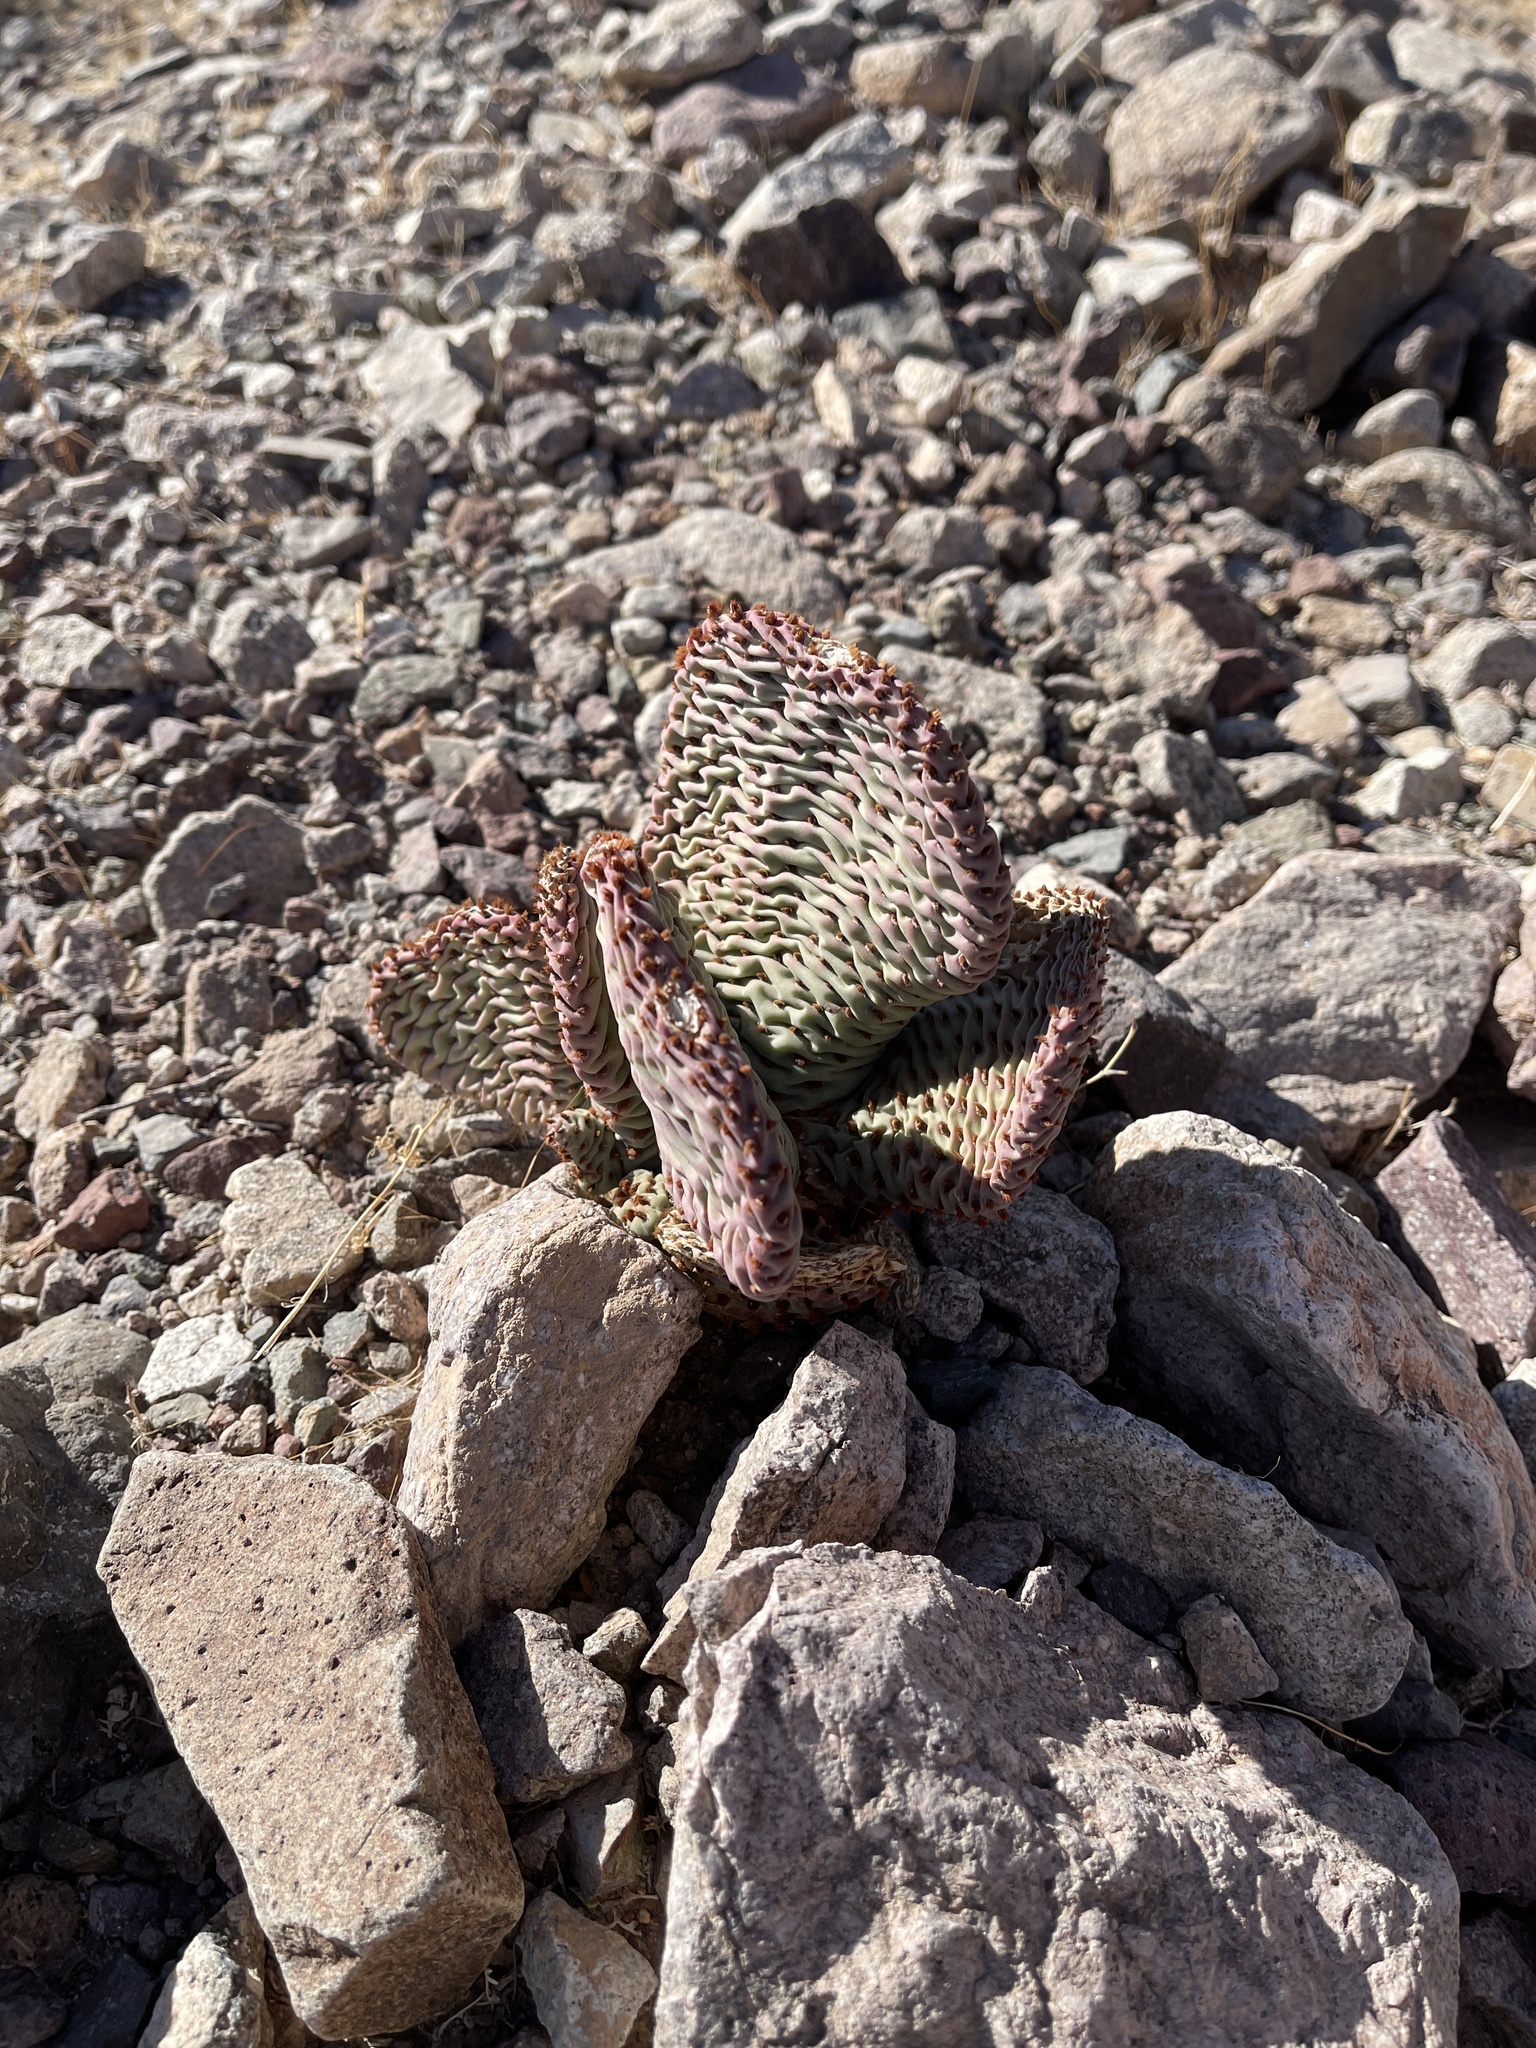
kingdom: Plantae
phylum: Tracheophyta
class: Magnoliopsida
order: Caryophyllales
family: Cactaceae
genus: Opuntia
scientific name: Opuntia basilaris
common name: Beavertail prickly-pear
